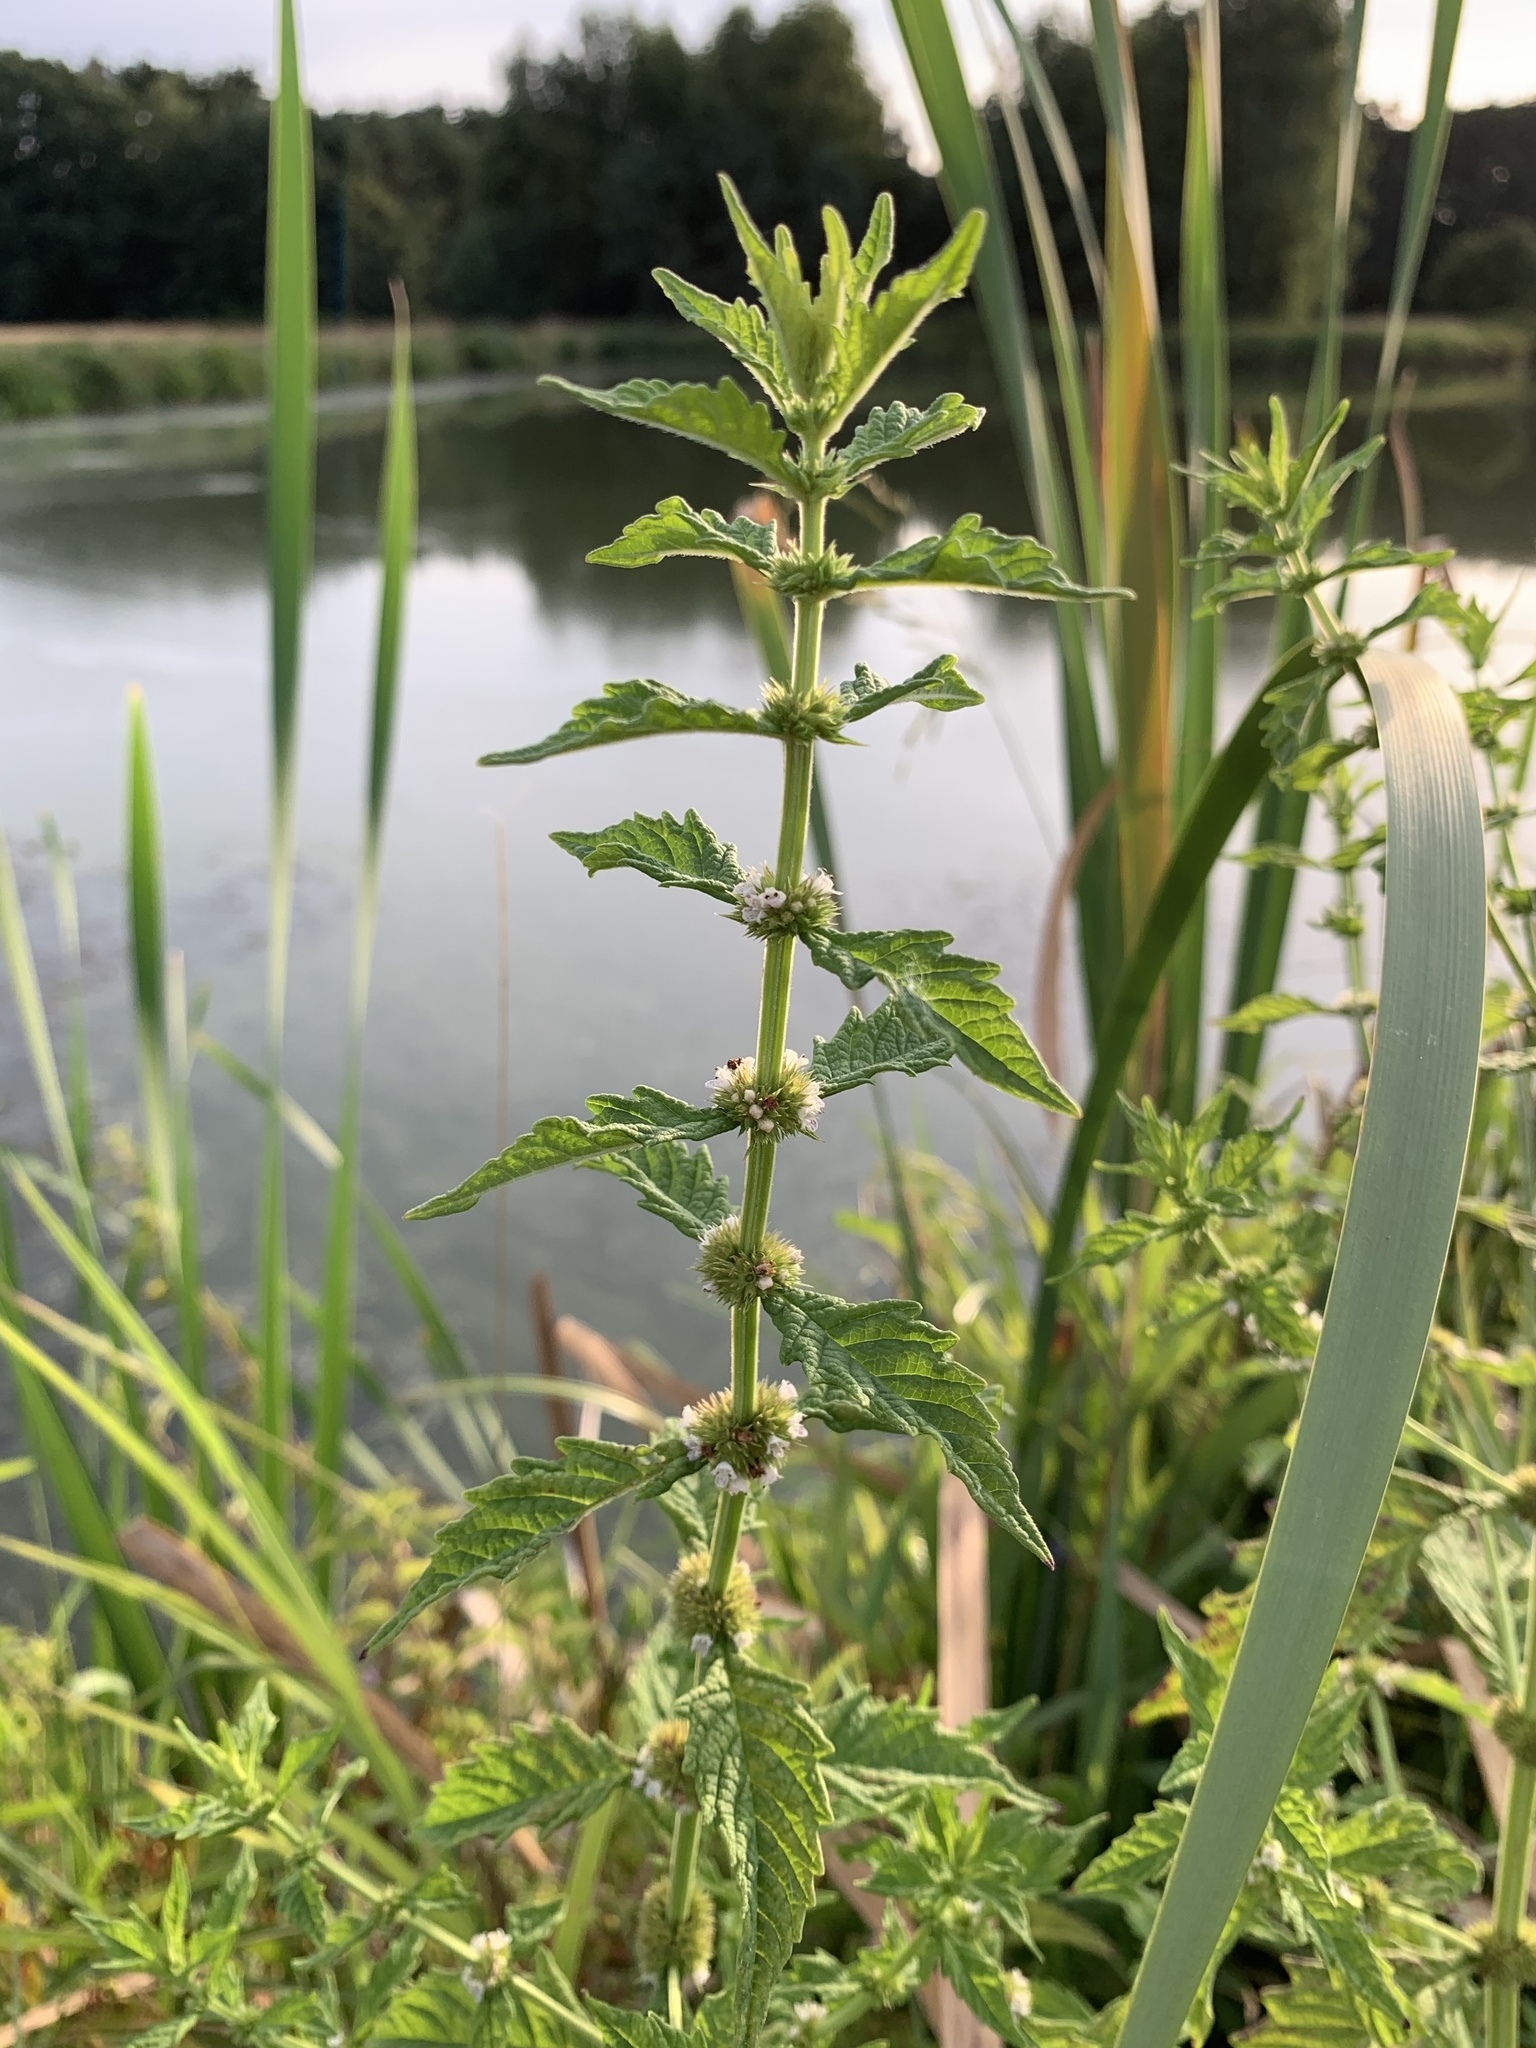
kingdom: Plantae
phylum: Tracheophyta
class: Magnoliopsida
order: Lamiales
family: Lamiaceae
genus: Lycopus
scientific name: Lycopus europaeus
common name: European bugleweed
